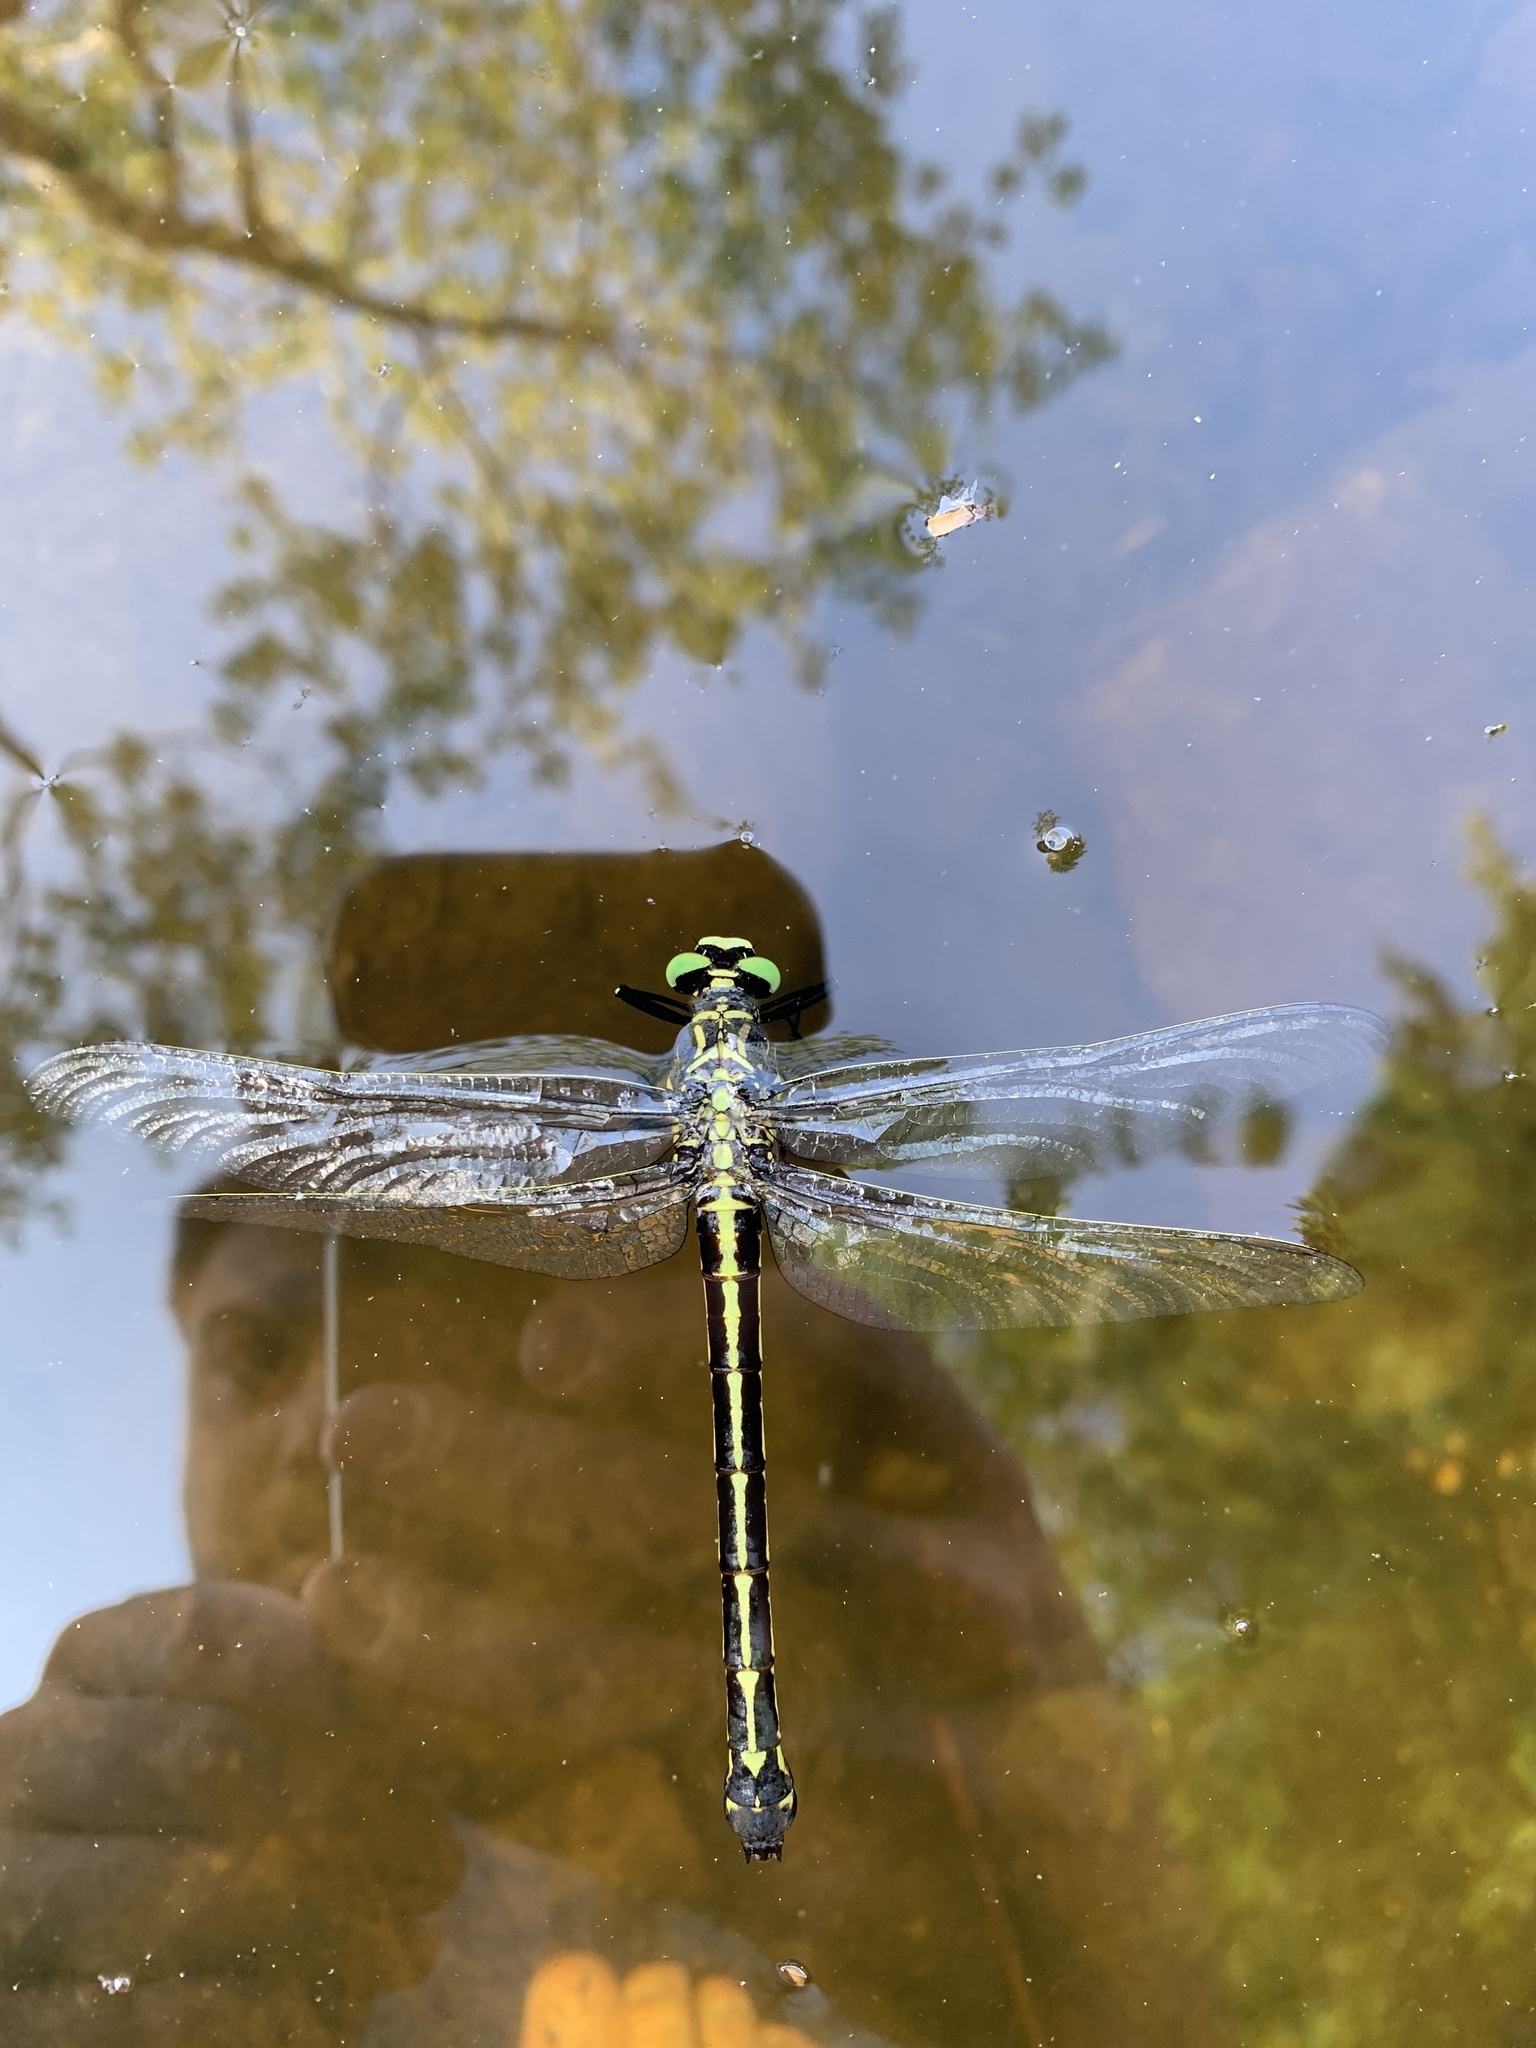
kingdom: Animalia
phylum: Arthropoda
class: Insecta
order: Odonata
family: Gomphidae
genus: Hagenius
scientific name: Hagenius brevistylus
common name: Dragonhunter
